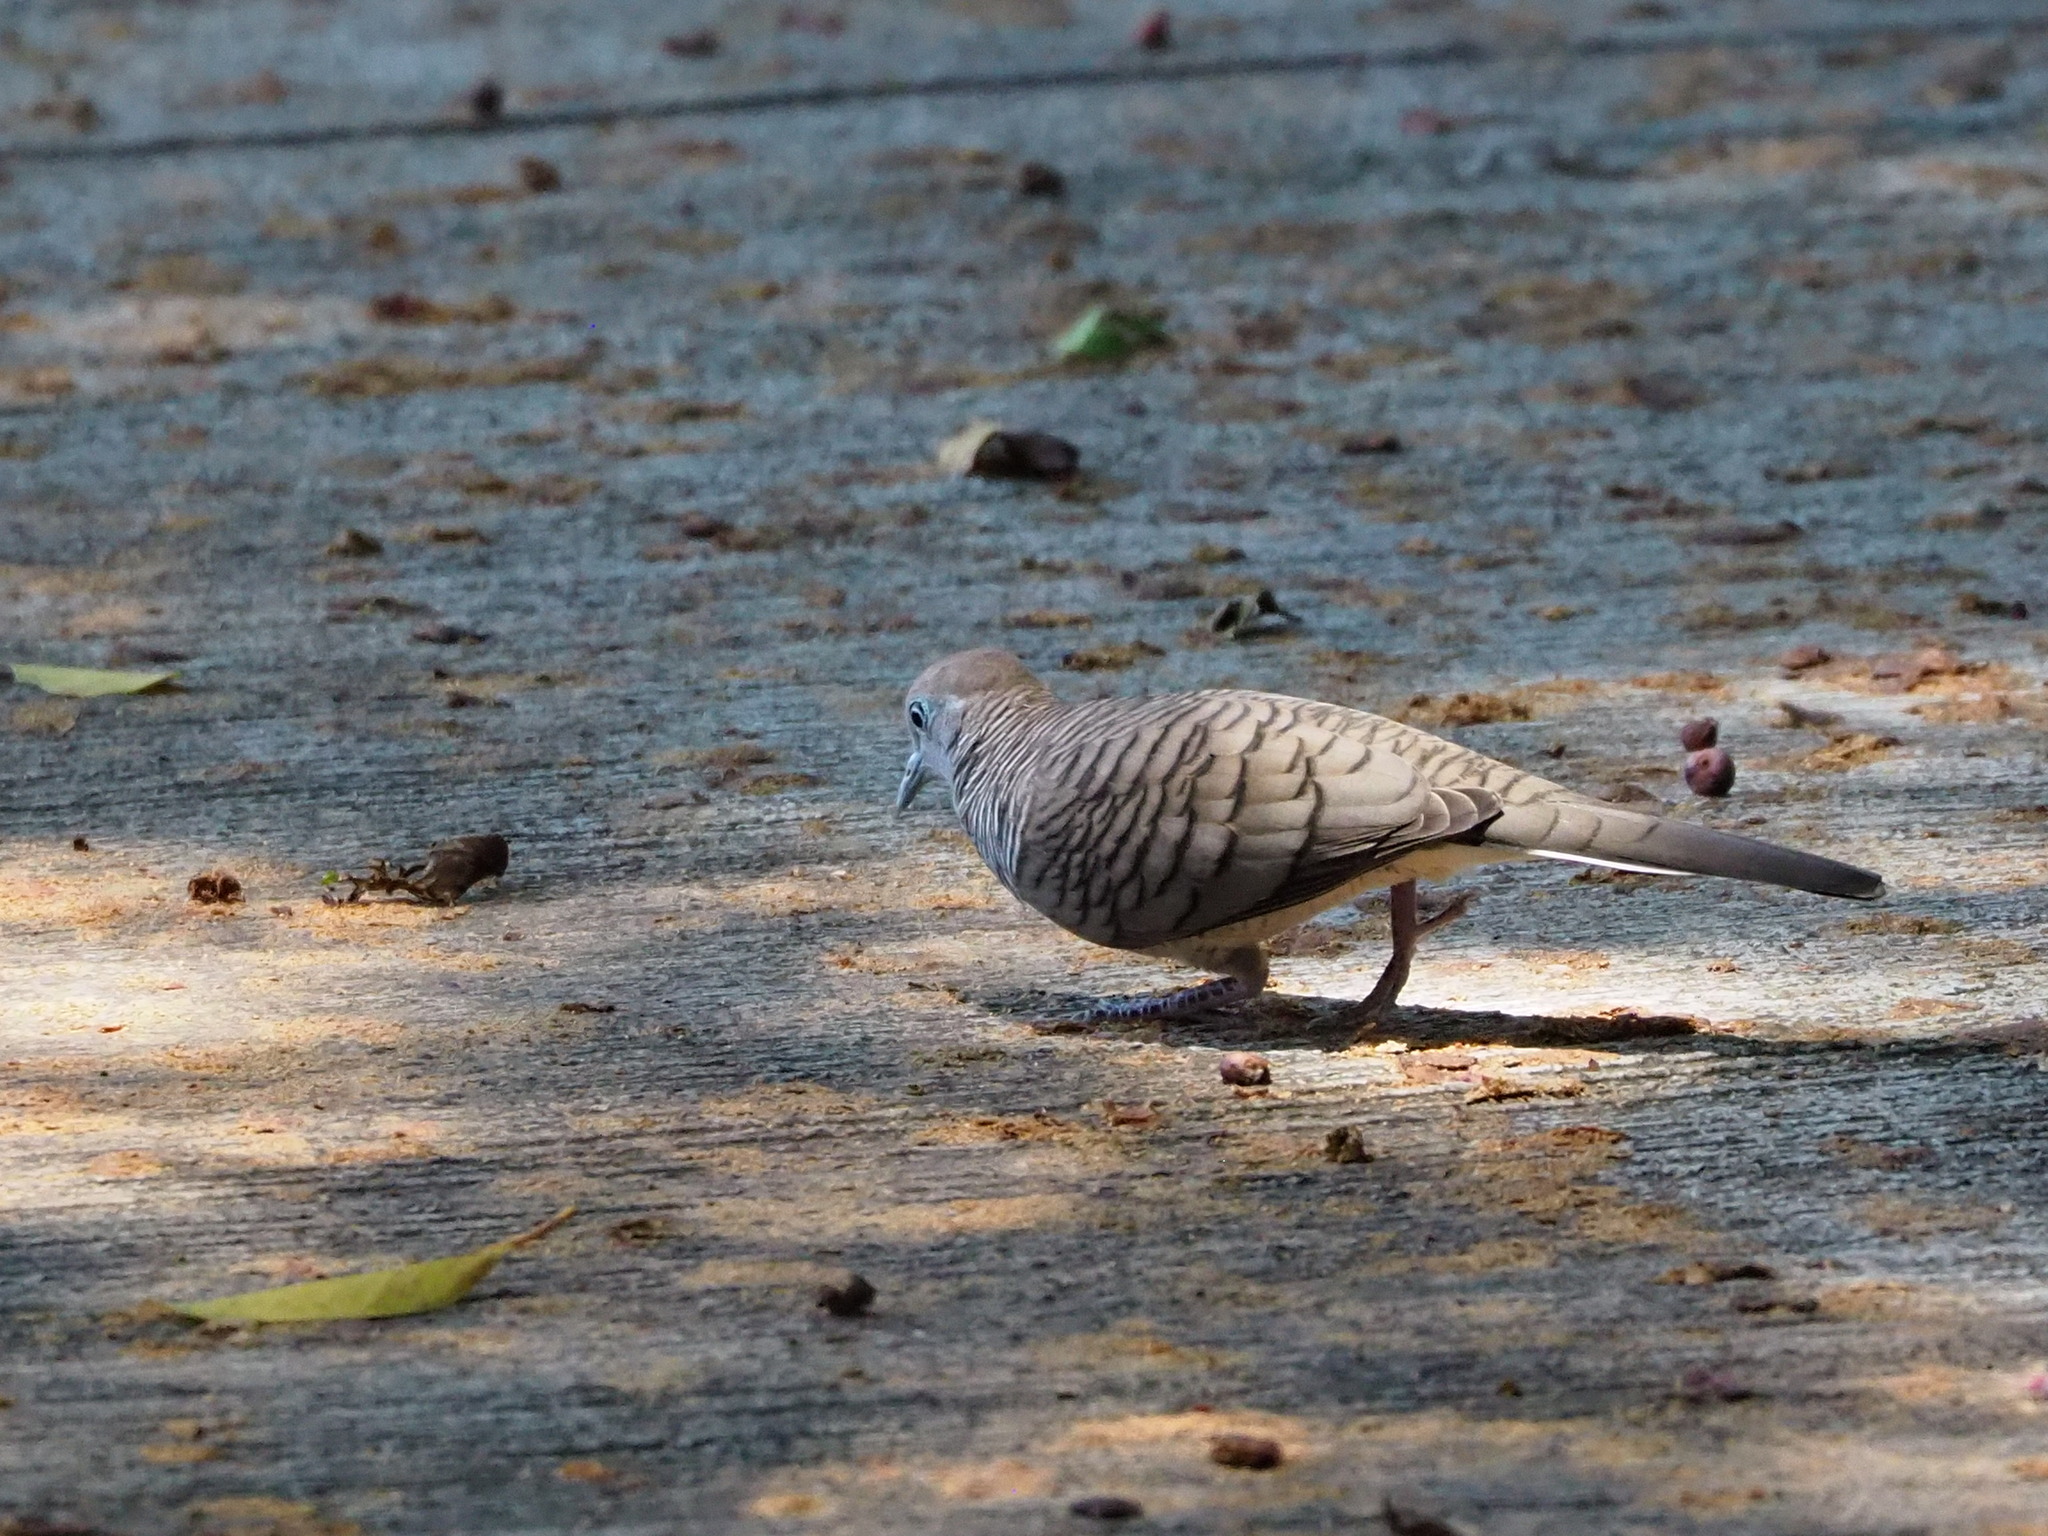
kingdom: Animalia
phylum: Chordata
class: Aves
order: Columbiformes
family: Columbidae
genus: Geopelia
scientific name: Geopelia striata
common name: Zebra dove
